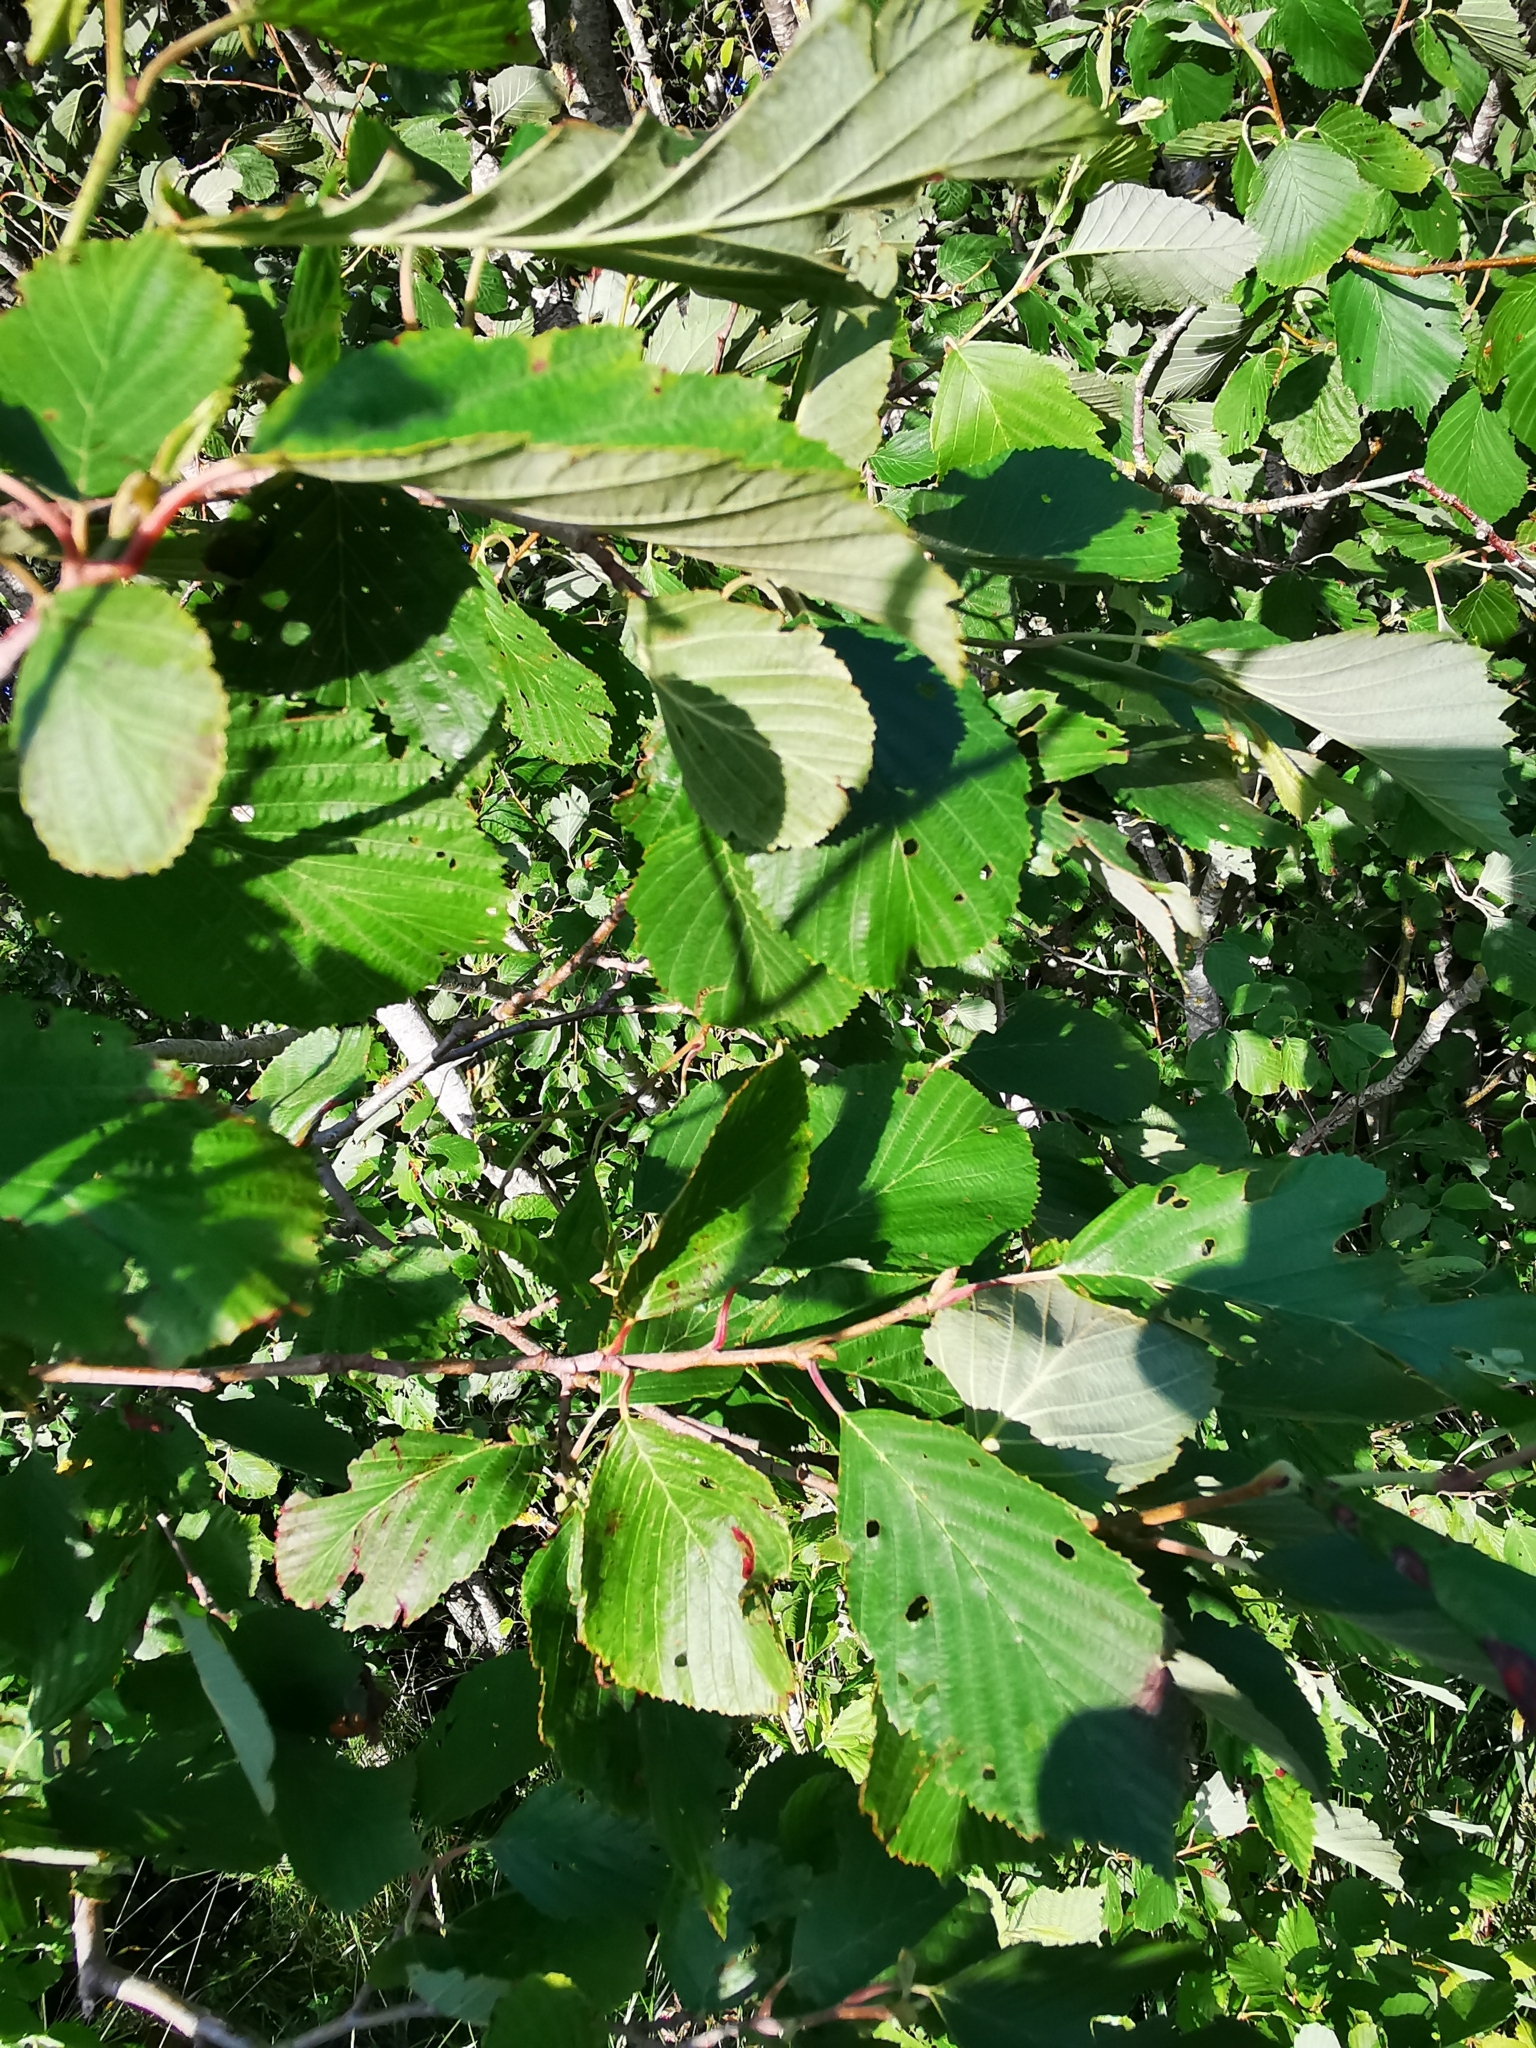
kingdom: Plantae
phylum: Tracheophyta
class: Magnoliopsida
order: Fagales
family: Betulaceae
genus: Alnus
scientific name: Alnus incana
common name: Grey alder
